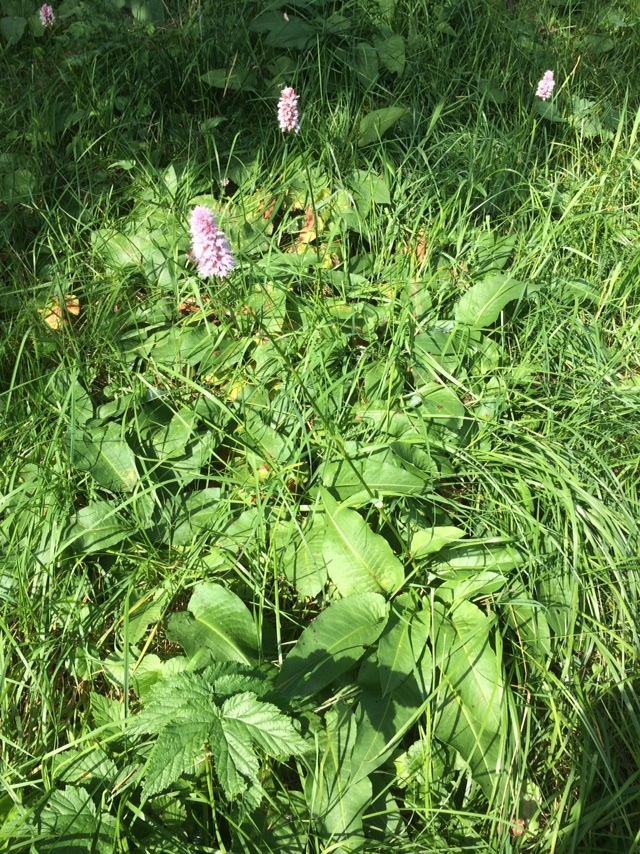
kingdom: Plantae
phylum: Tracheophyta
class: Magnoliopsida
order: Caryophyllales
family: Polygonaceae
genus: Bistorta
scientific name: Bistorta officinalis
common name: Common bistort
